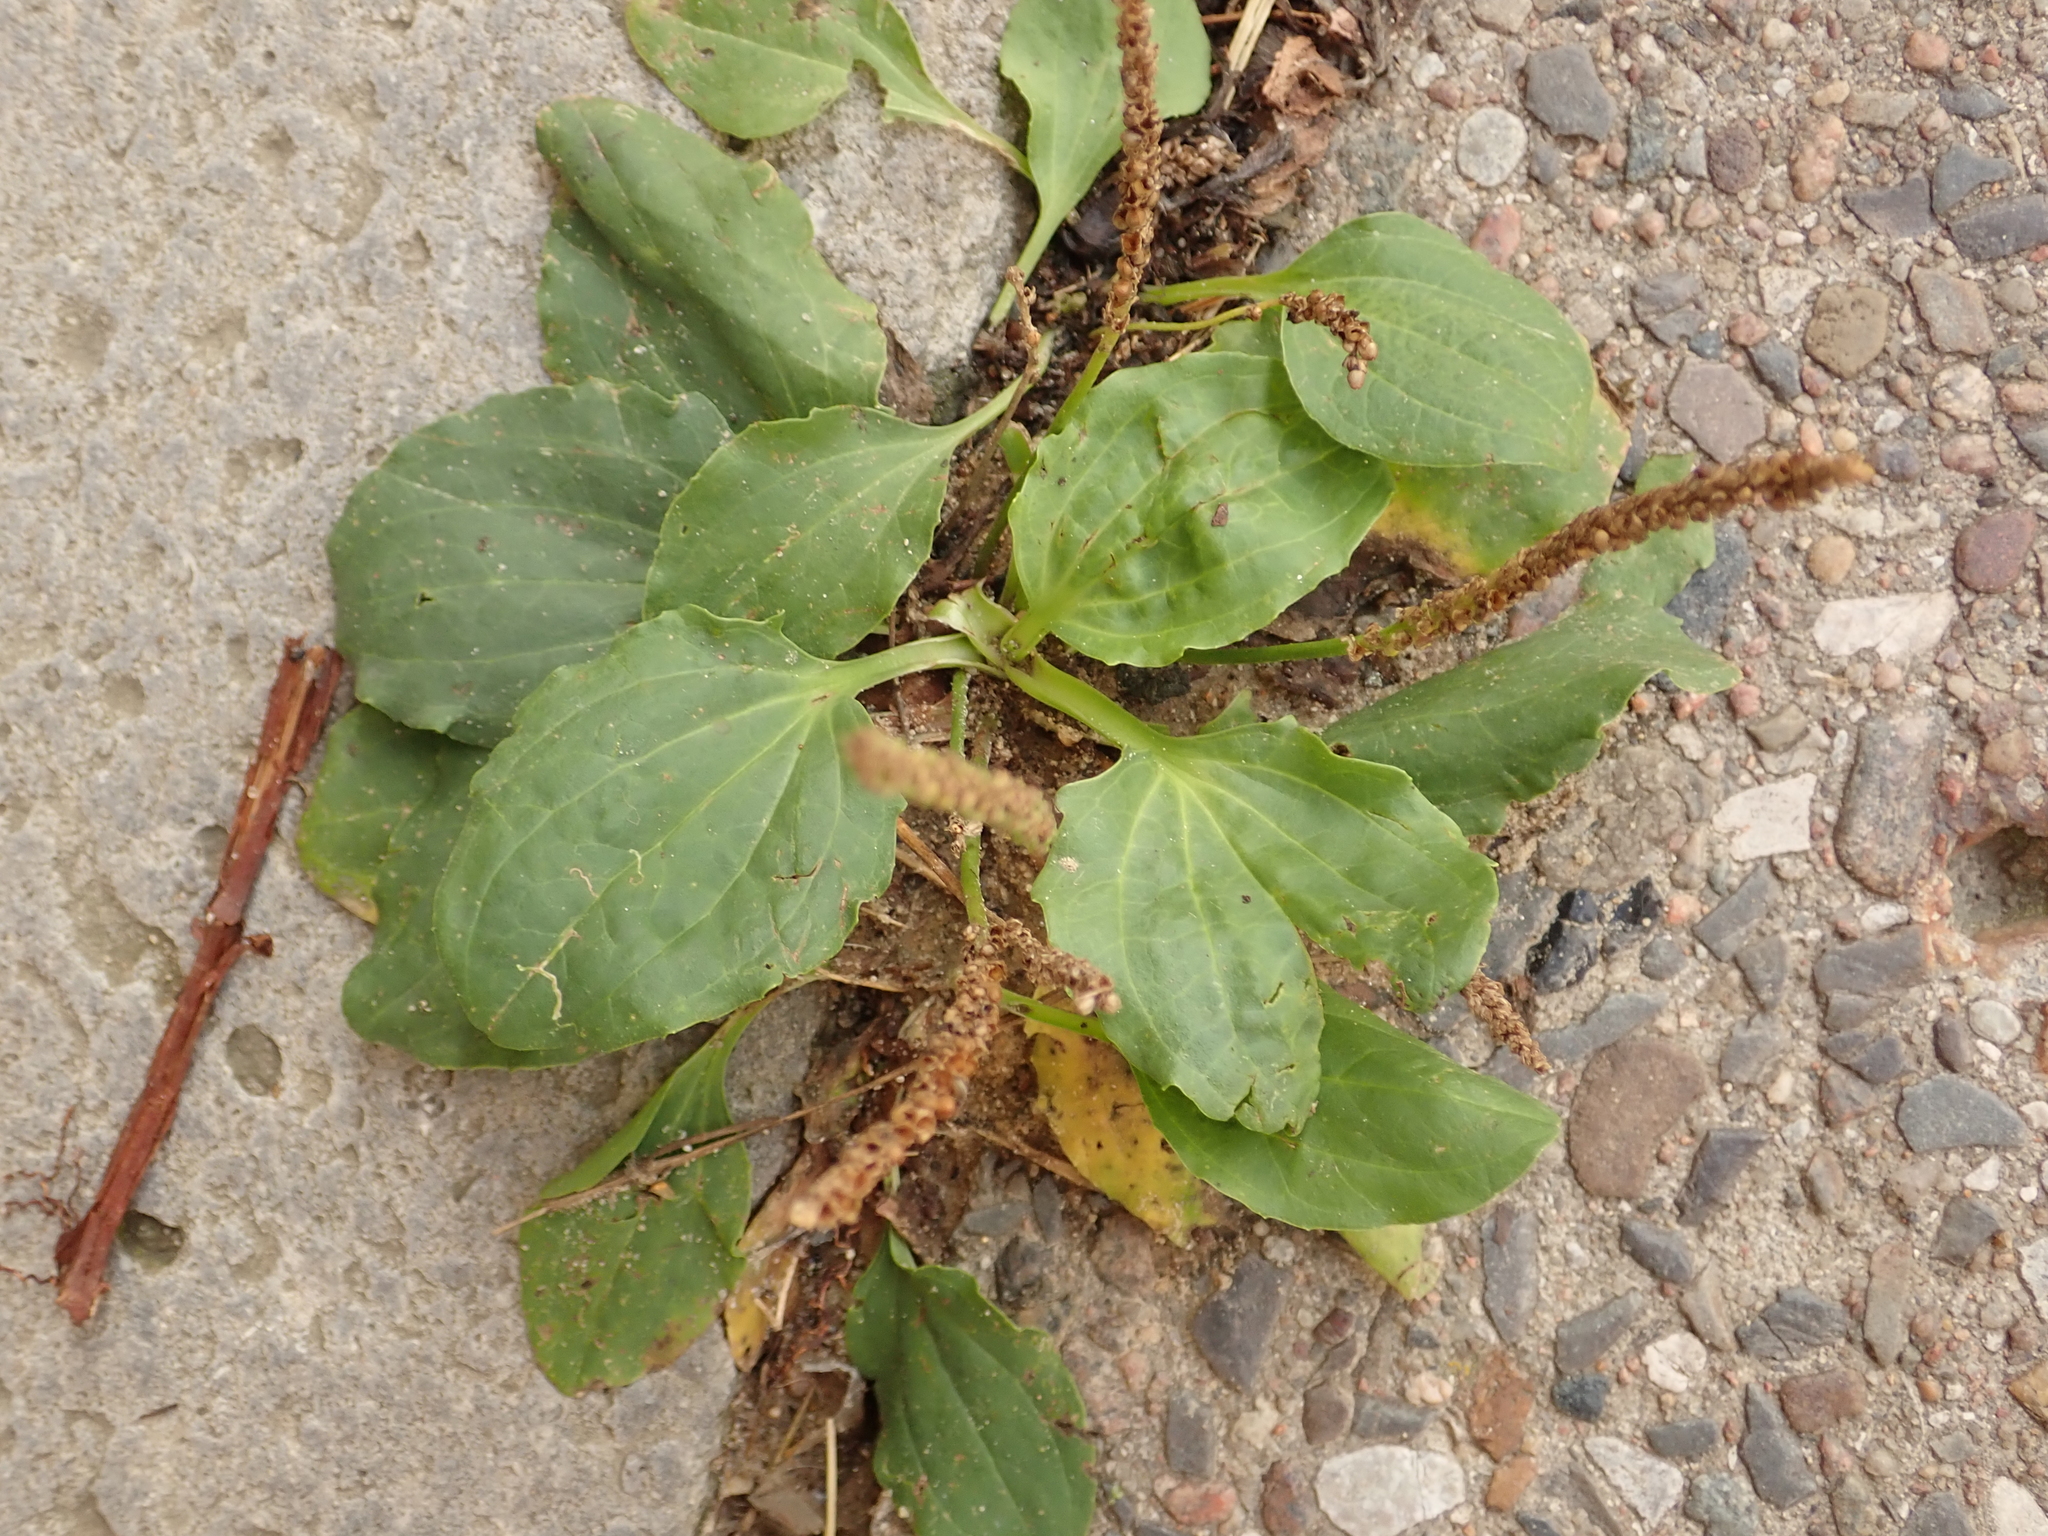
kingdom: Plantae
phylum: Tracheophyta
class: Magnoliopsida
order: Lamiales
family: Plantaginaceae
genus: Plantago
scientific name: Plantago major
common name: Common plantain
